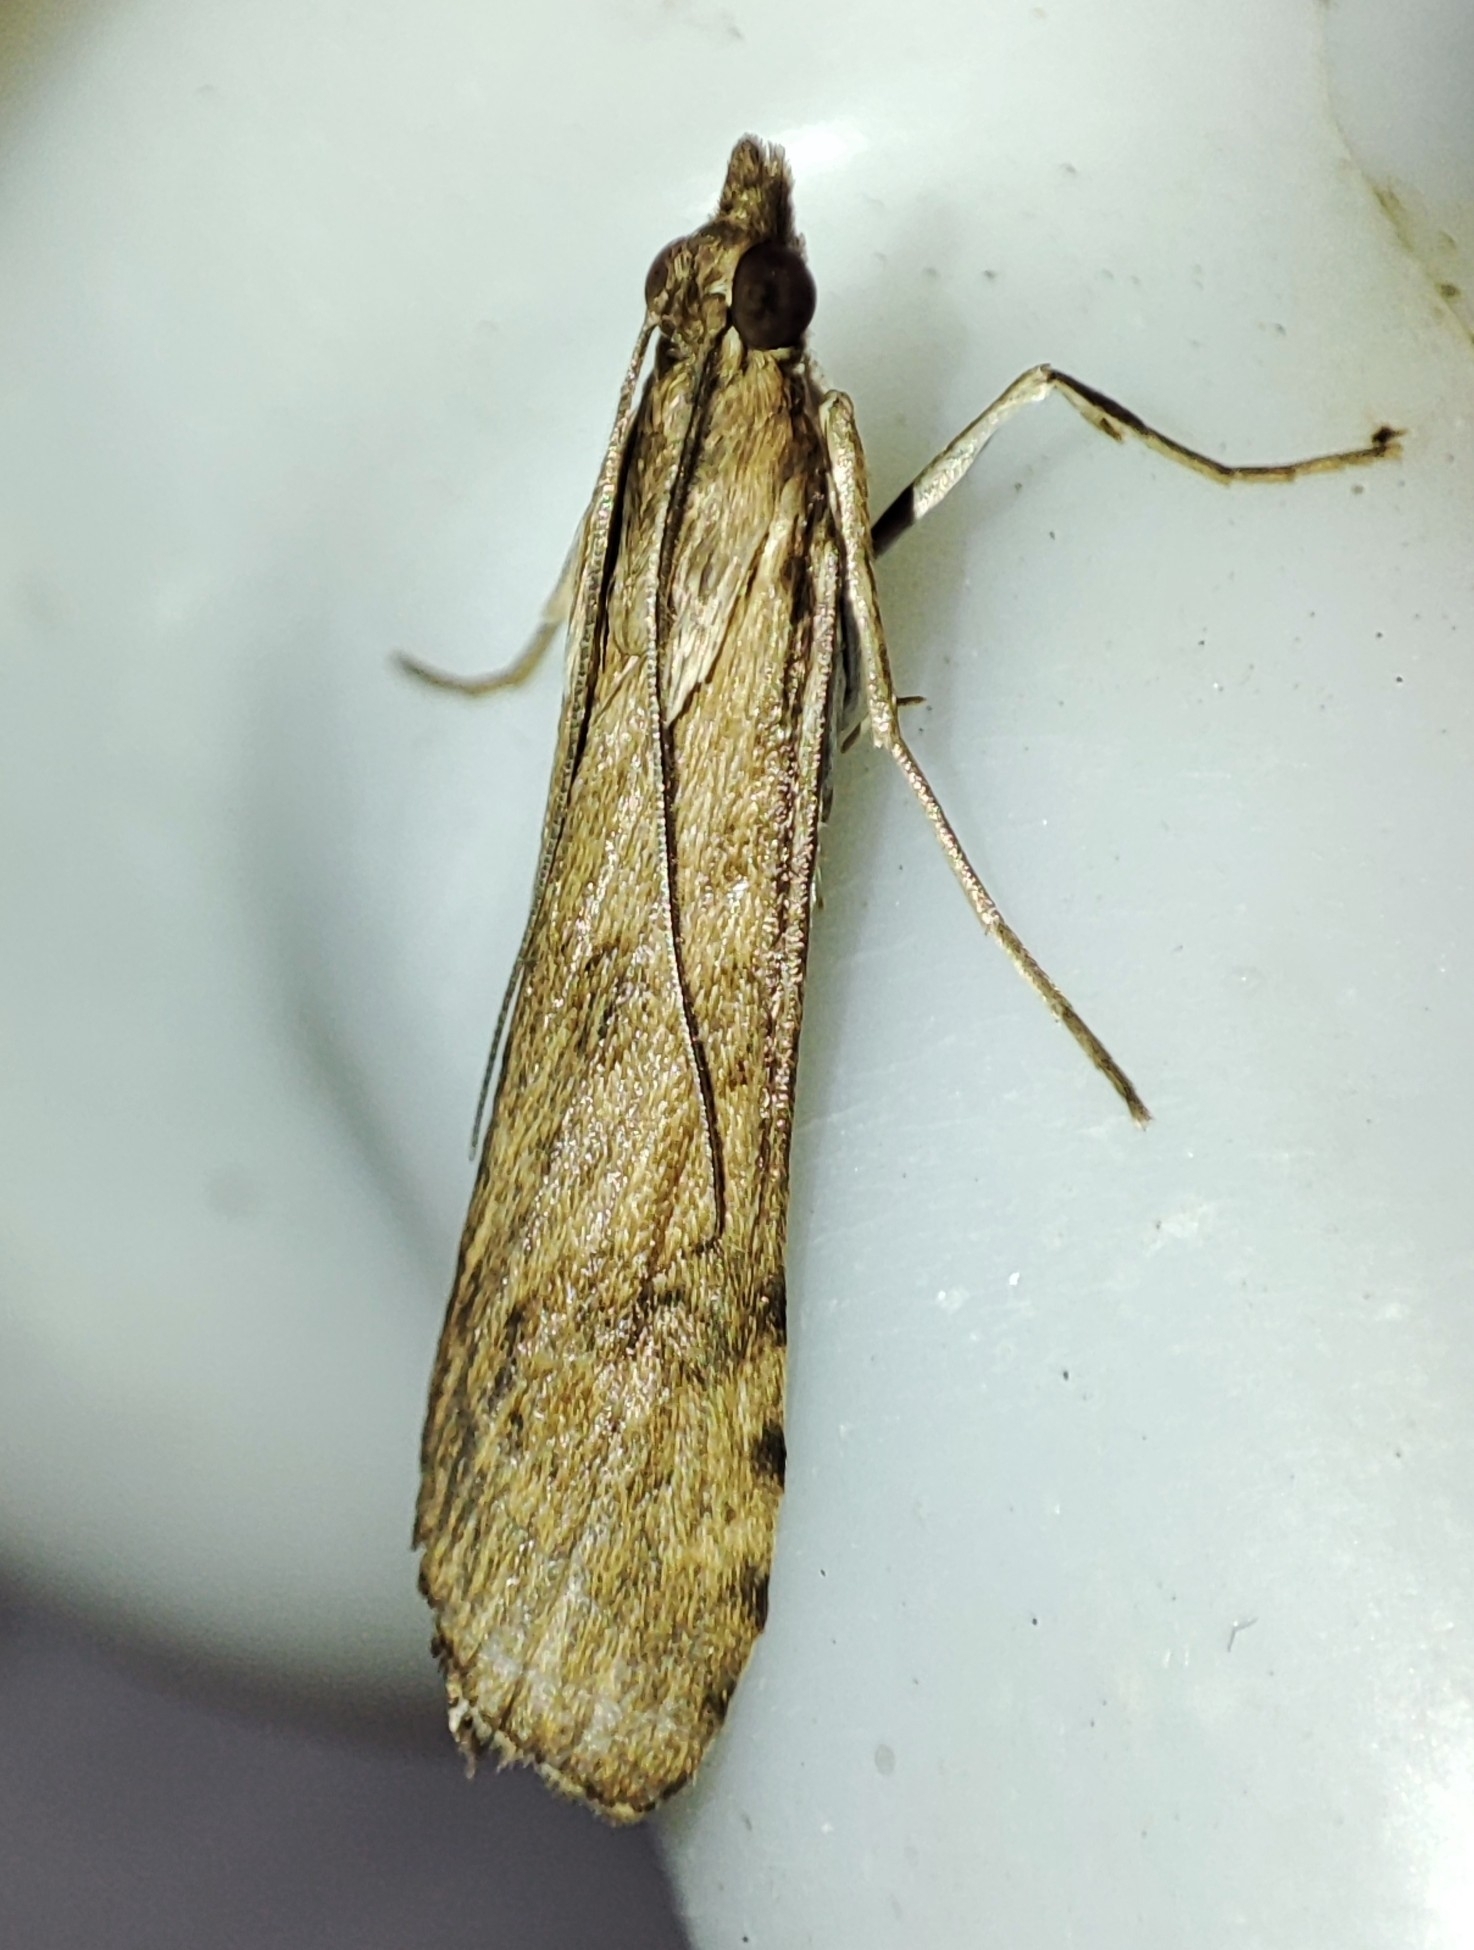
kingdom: Animalia
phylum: Arthropoda
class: Insecta
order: Lepidoptera
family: Crambidae
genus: Nomophila
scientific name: Nomophila noctuella
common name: Rush veneer
